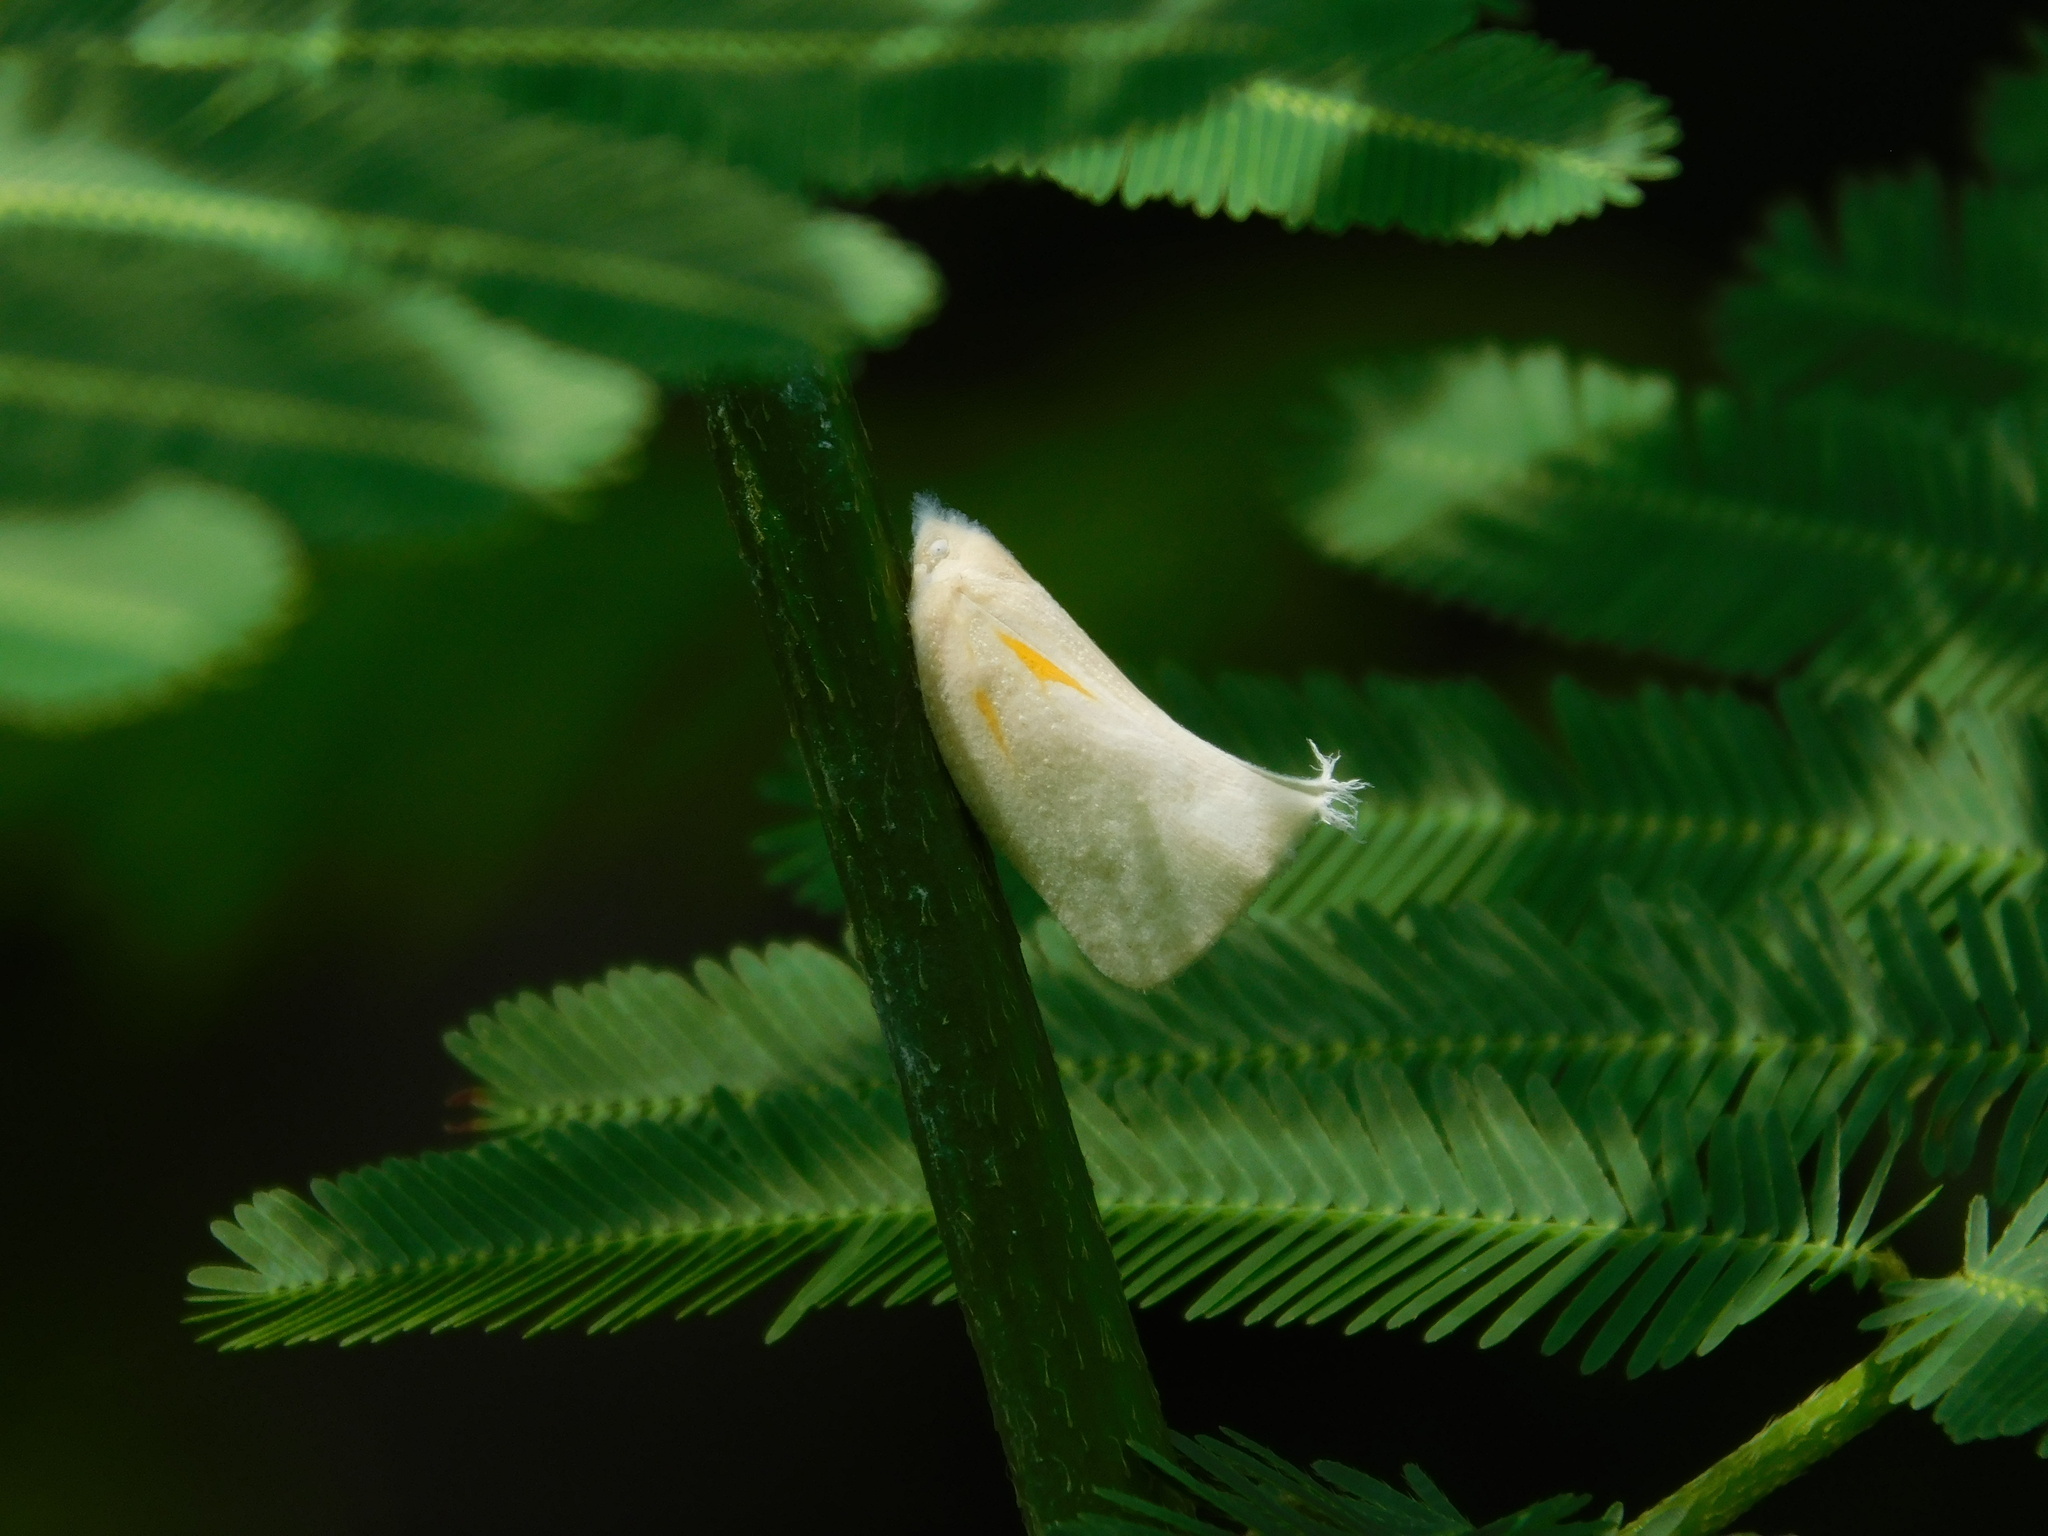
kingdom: Animalia
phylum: Arthropoda
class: Insecta
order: Hemiptera
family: Flatidae
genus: Lawana
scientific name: Lawana candida
